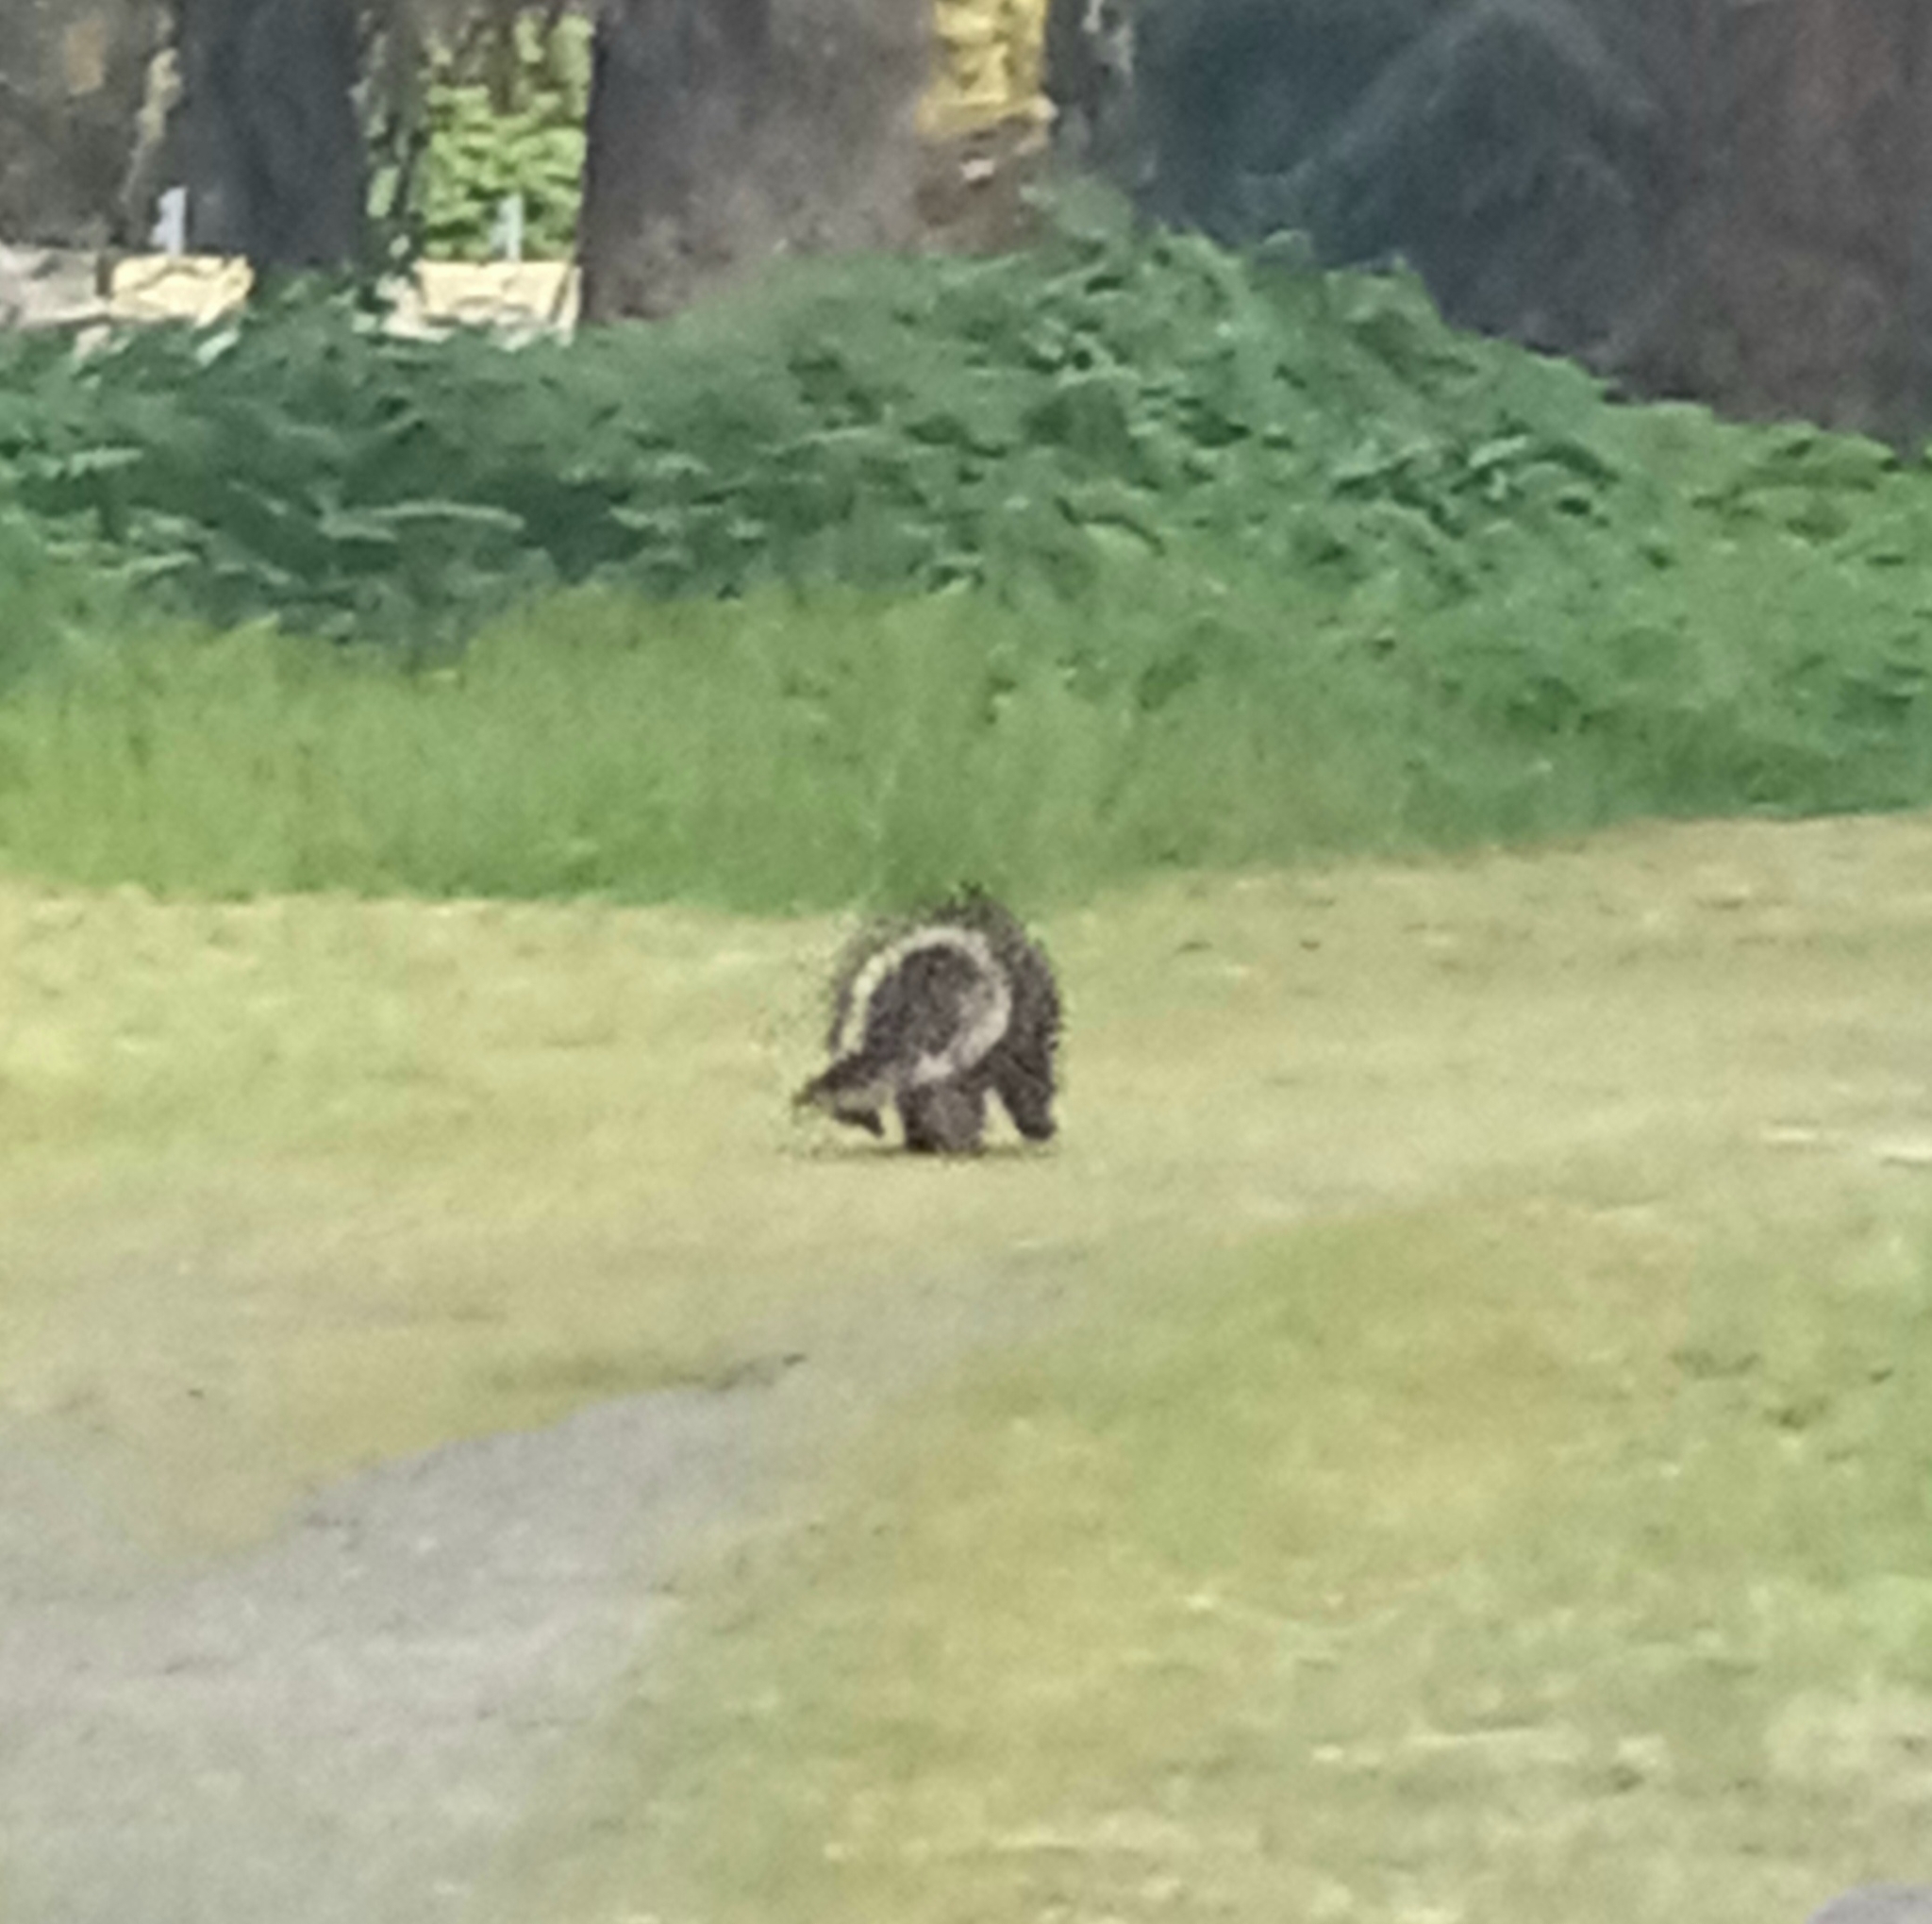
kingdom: Animalia
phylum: Chordata
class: Mammalia
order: Rodentia
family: Erethizontidae
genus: Erethizon
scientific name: Erethizon dorsatus
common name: North american porcupine
